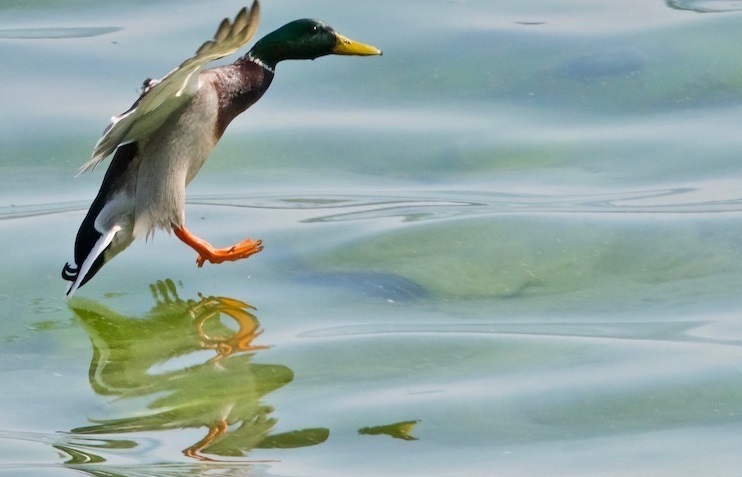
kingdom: Animalia
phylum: Chordata
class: Aves
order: Anseriformes
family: Anatidae
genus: Anas
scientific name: Anas platyrhynchos
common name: Mallard
